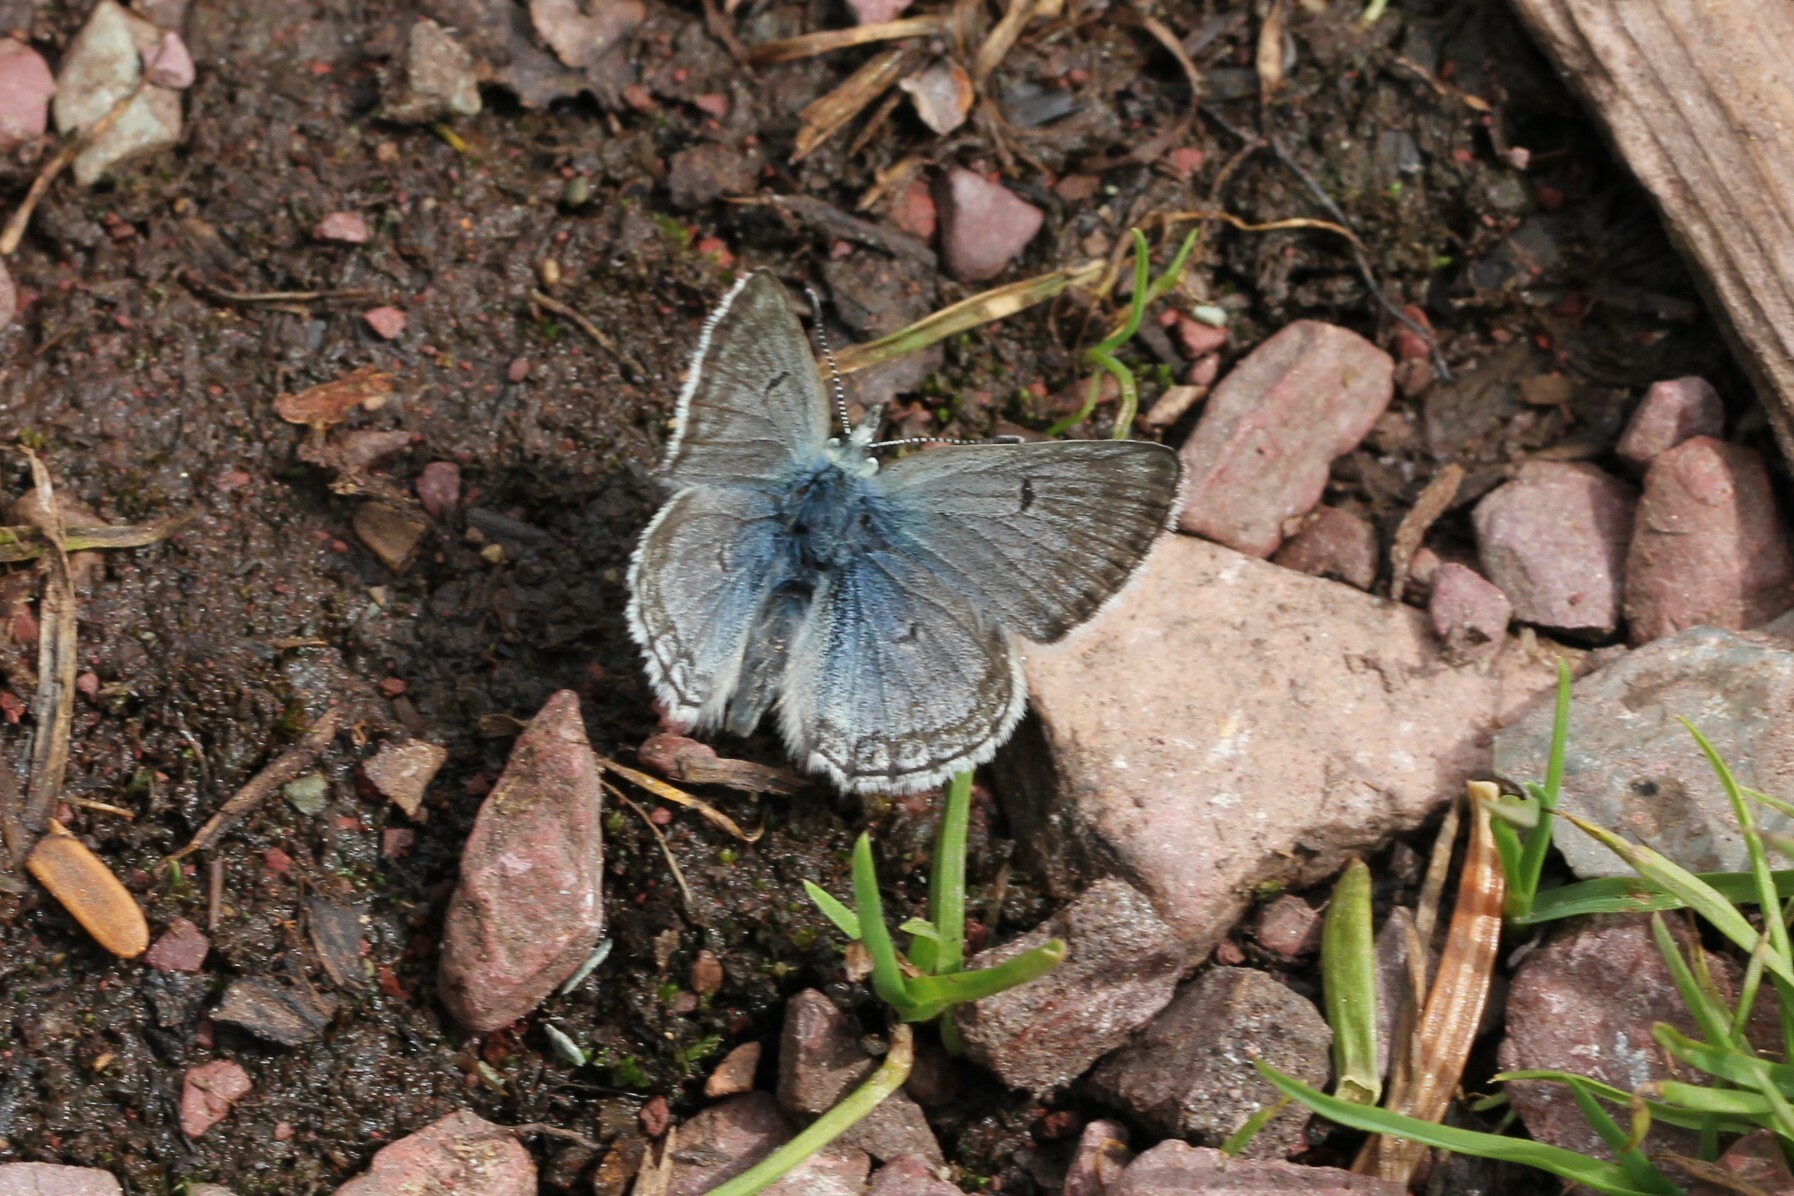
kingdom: Animalia
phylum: Arthropoda
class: Insecta
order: Lepidoptera
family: Lycaenidae
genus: Agriades
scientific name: Agriades glandon
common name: Glandon blue
